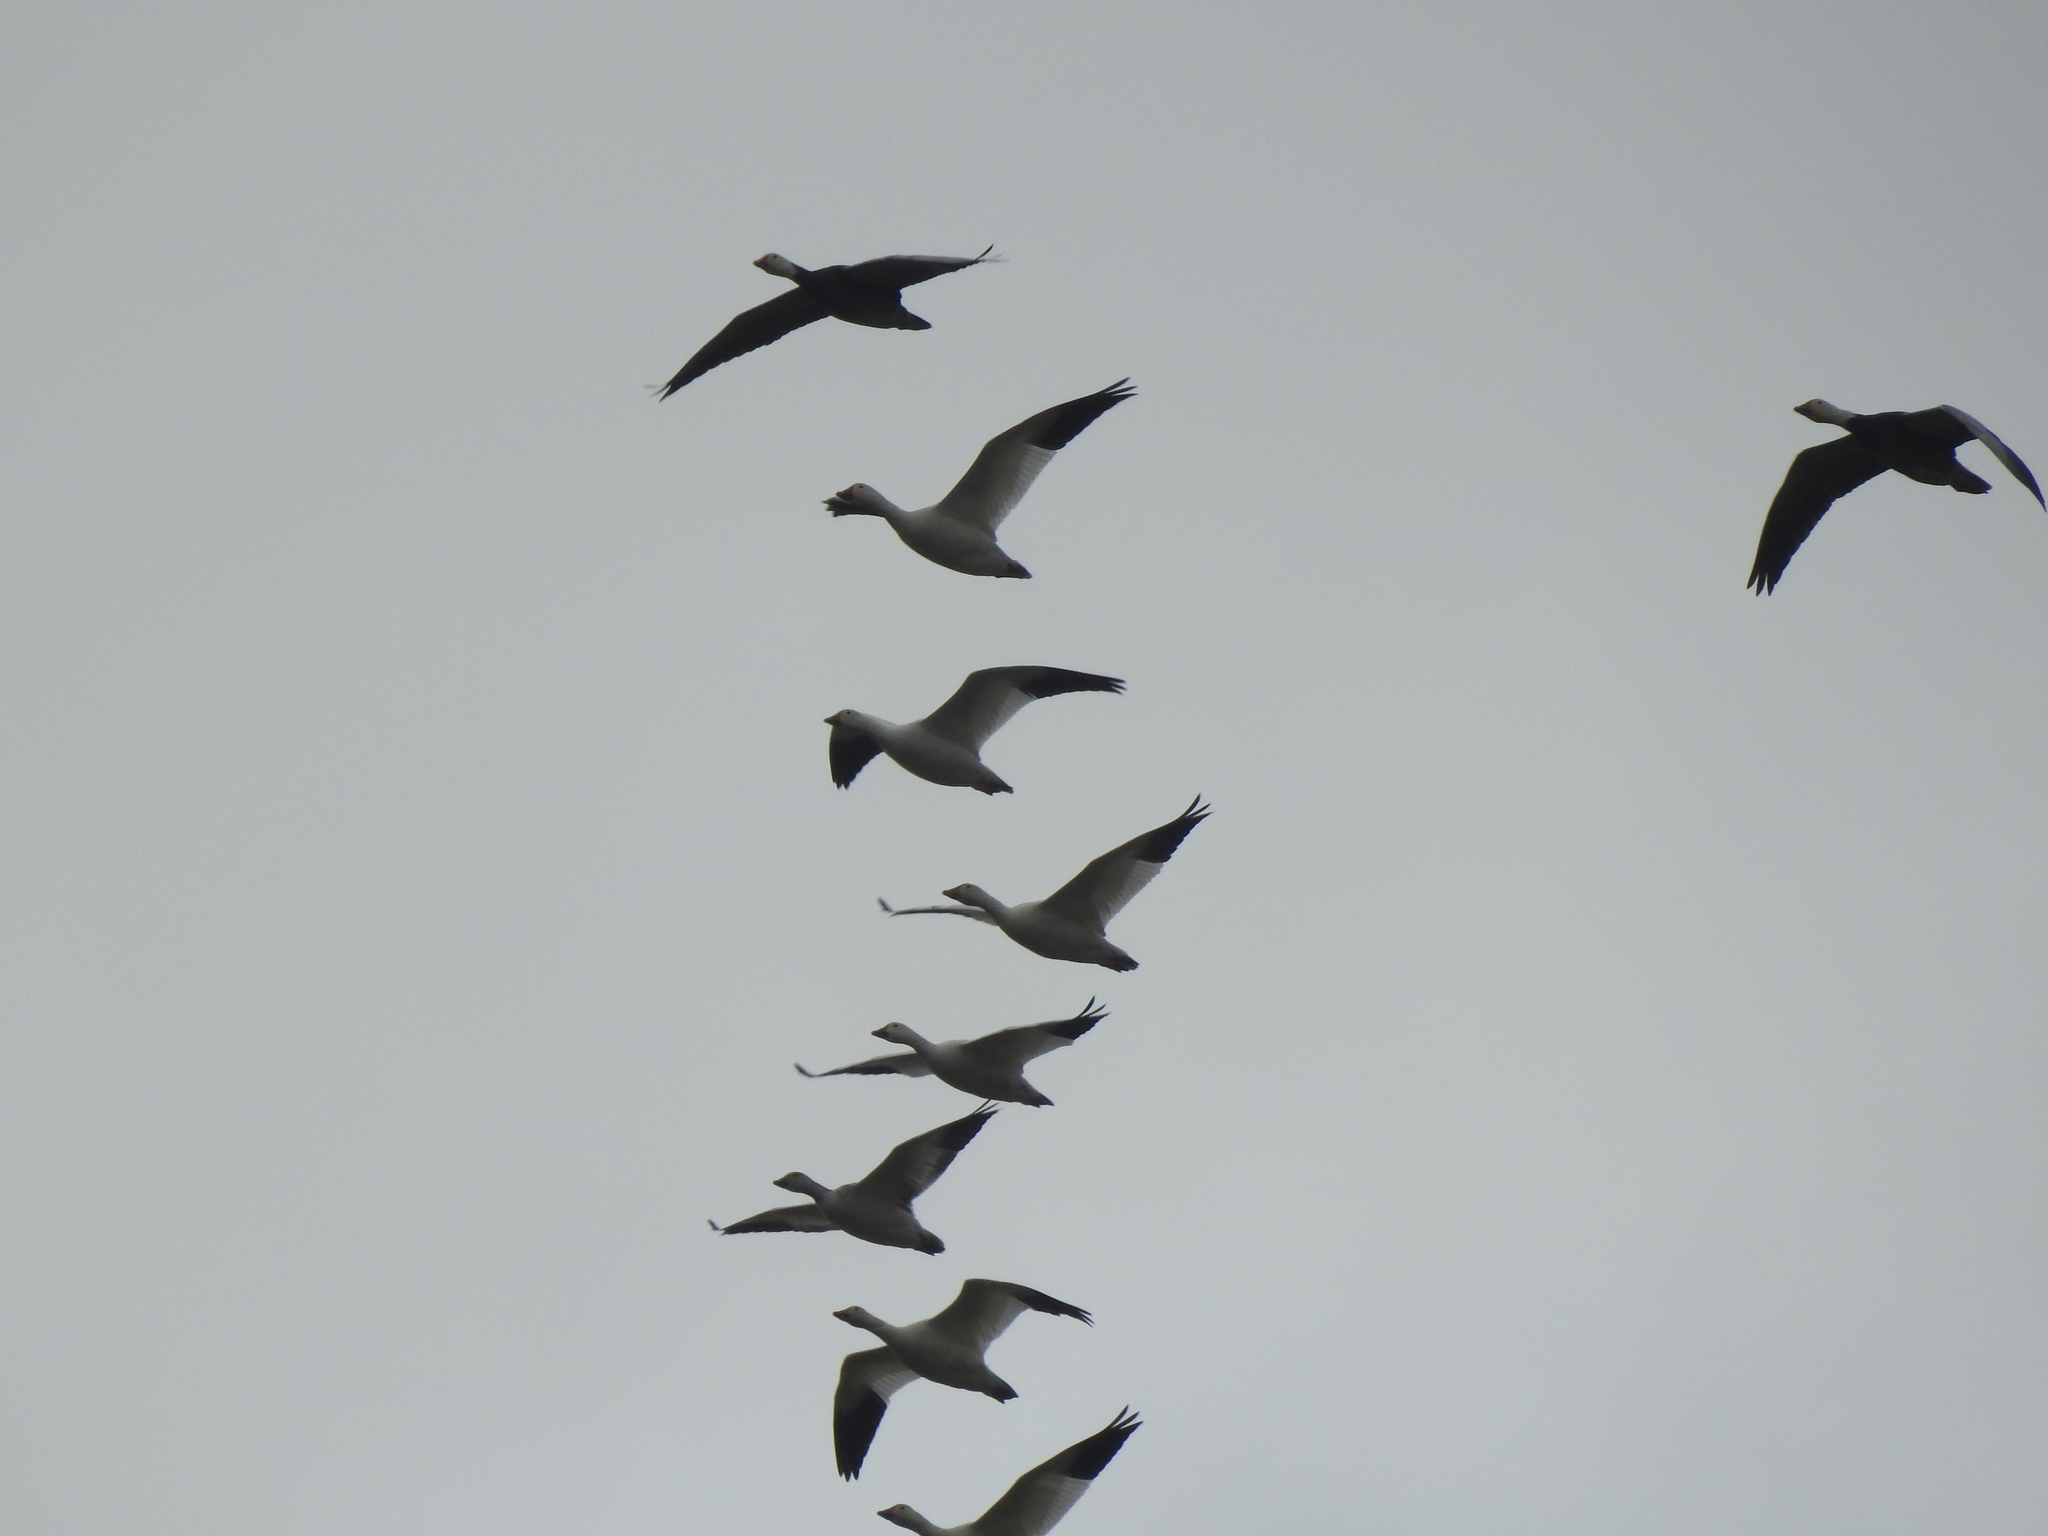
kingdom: Animalia
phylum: Chordata
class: Aves
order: Anseriformes
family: Anatidae
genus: Anser
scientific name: Anser caerulescens
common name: Snow goose
